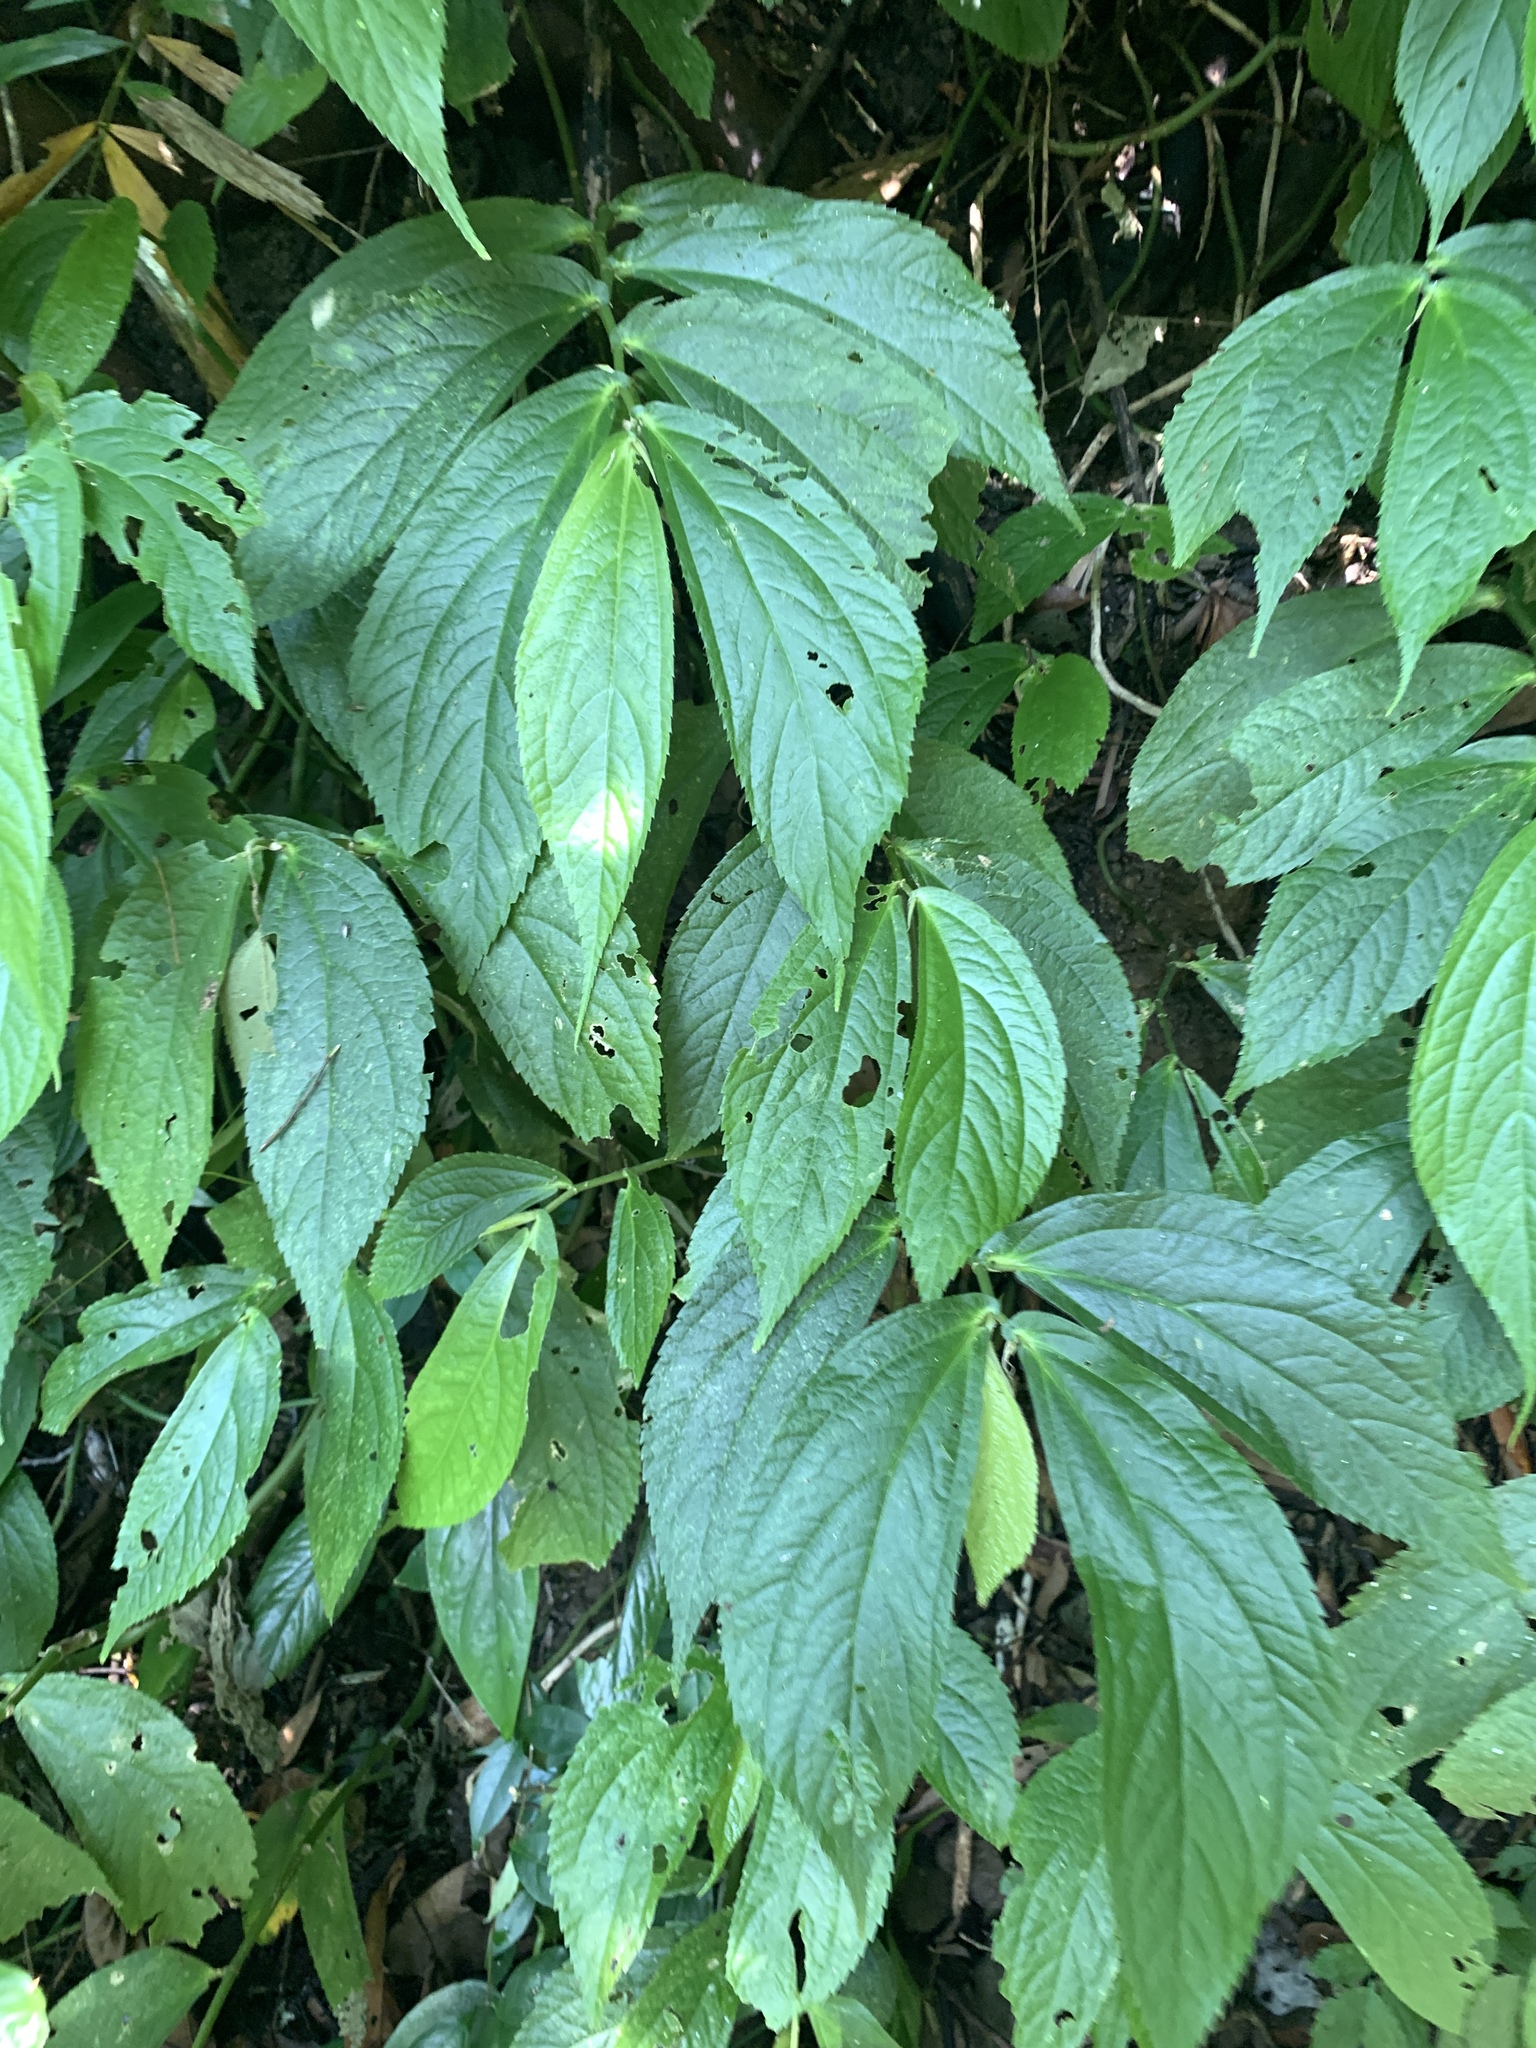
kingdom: Plantae
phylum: Tracheophyta
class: Magnoliopsida
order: Rosales
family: Urticaceae
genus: Elatostema
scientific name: Elatostema platyphyllum
